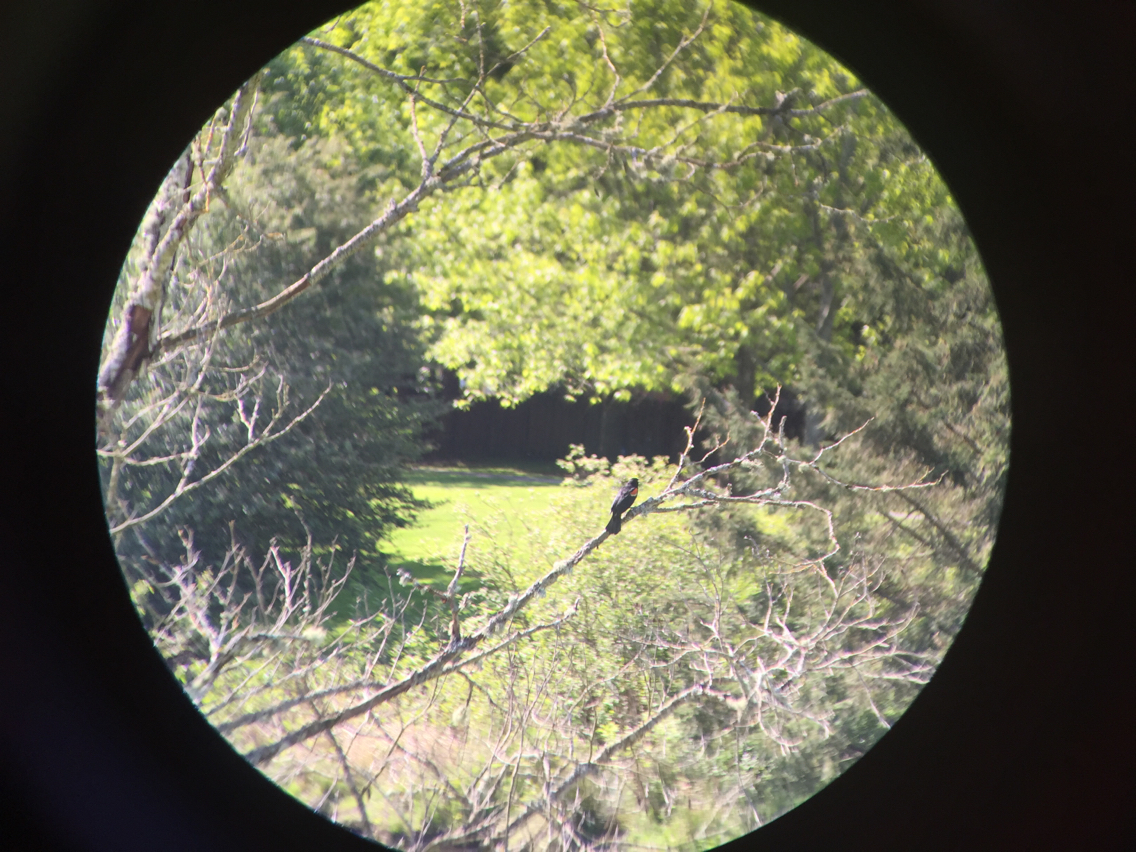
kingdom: Animalia
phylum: Chordata
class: Aves
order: Passeriformes
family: Icteridae
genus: Agelaius
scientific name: Agelaius phoeniceus
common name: Red-winged blackbird
